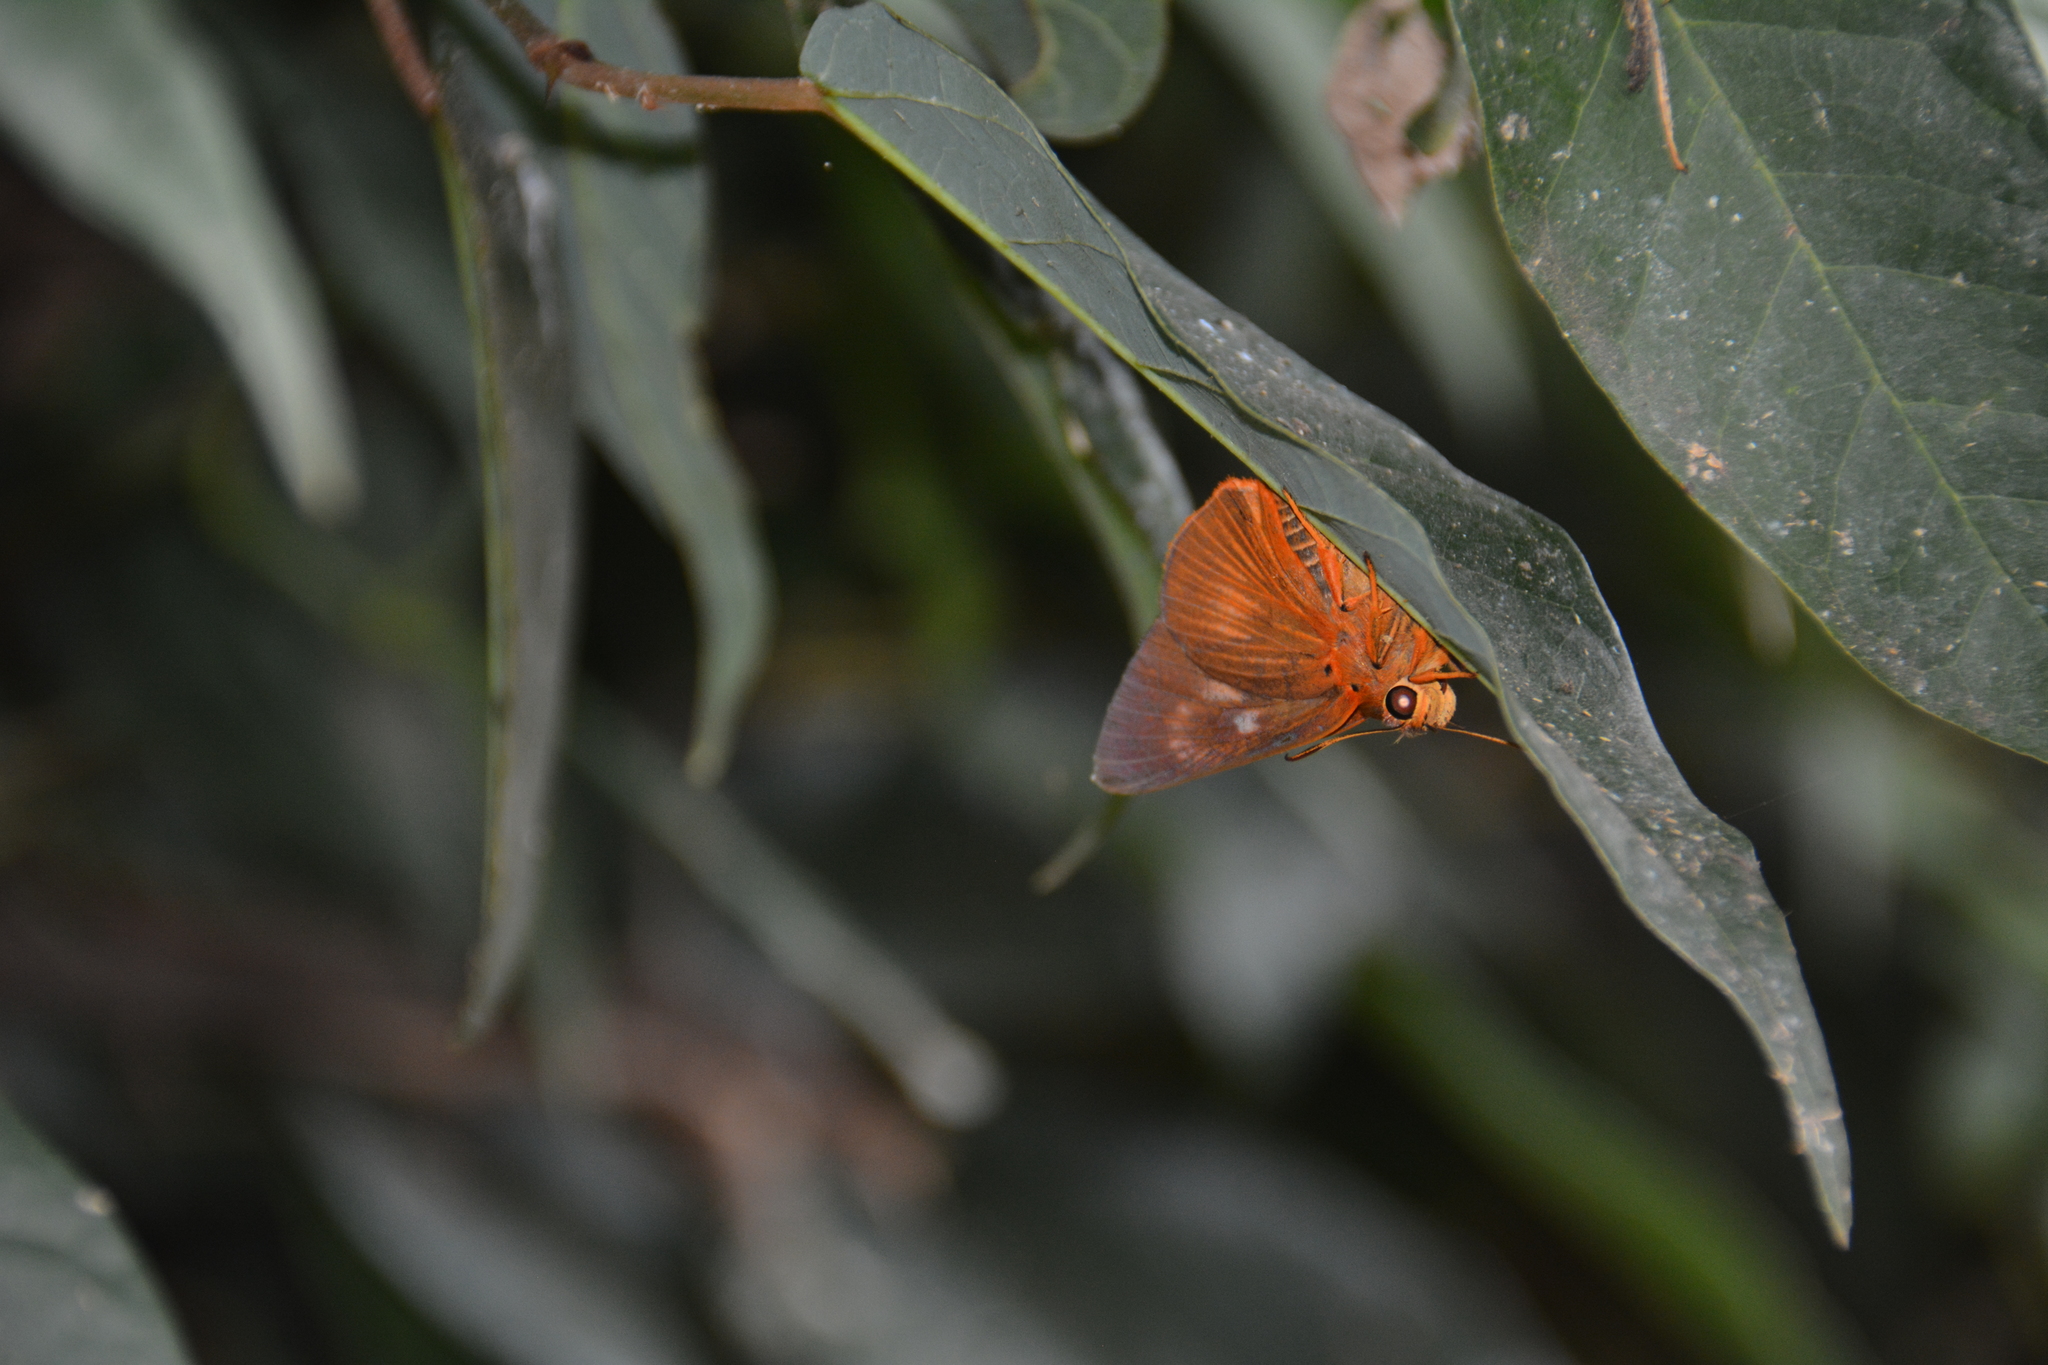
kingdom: Animalia
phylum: Arthropoda
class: Insecta
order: Lepidoptera
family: Hesperiidae
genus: Bibasis
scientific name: Bibasis jaina
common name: Common orange awlet
